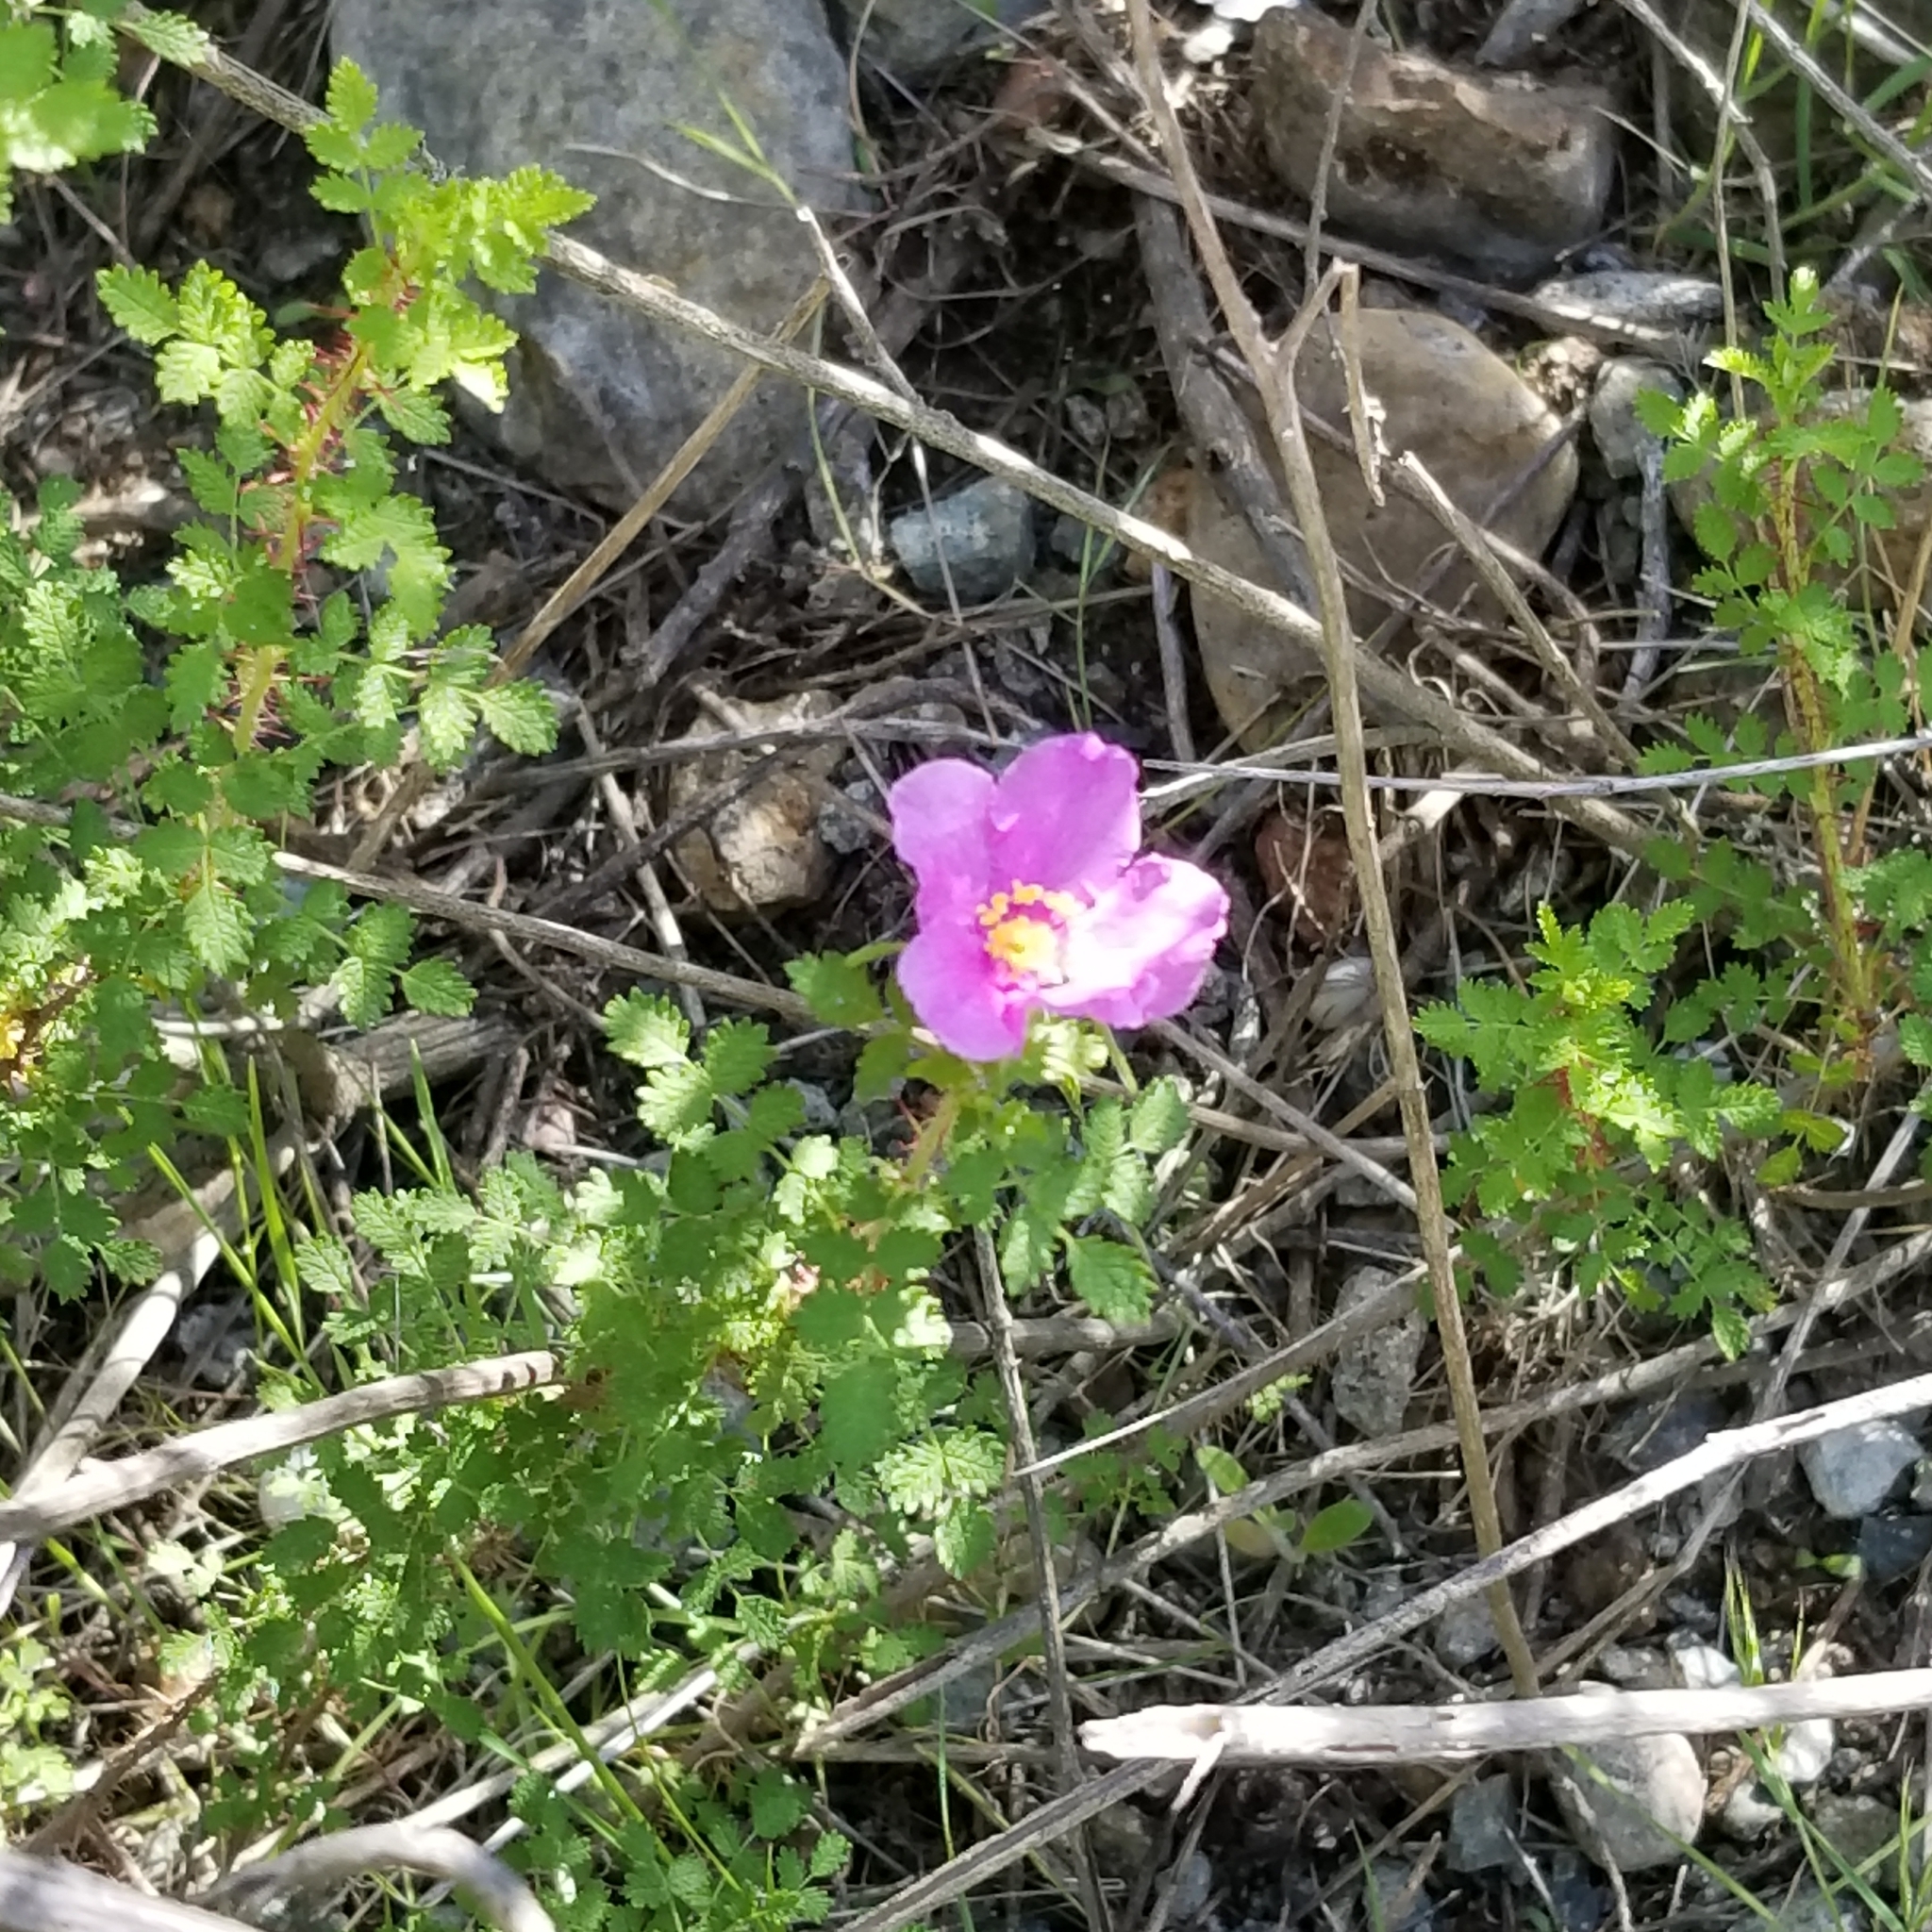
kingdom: Plantae
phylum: Tracheophyta
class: Magnoliopsida
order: Rosales
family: Rosaceae
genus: Rosa
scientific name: Rosa minutifolia
